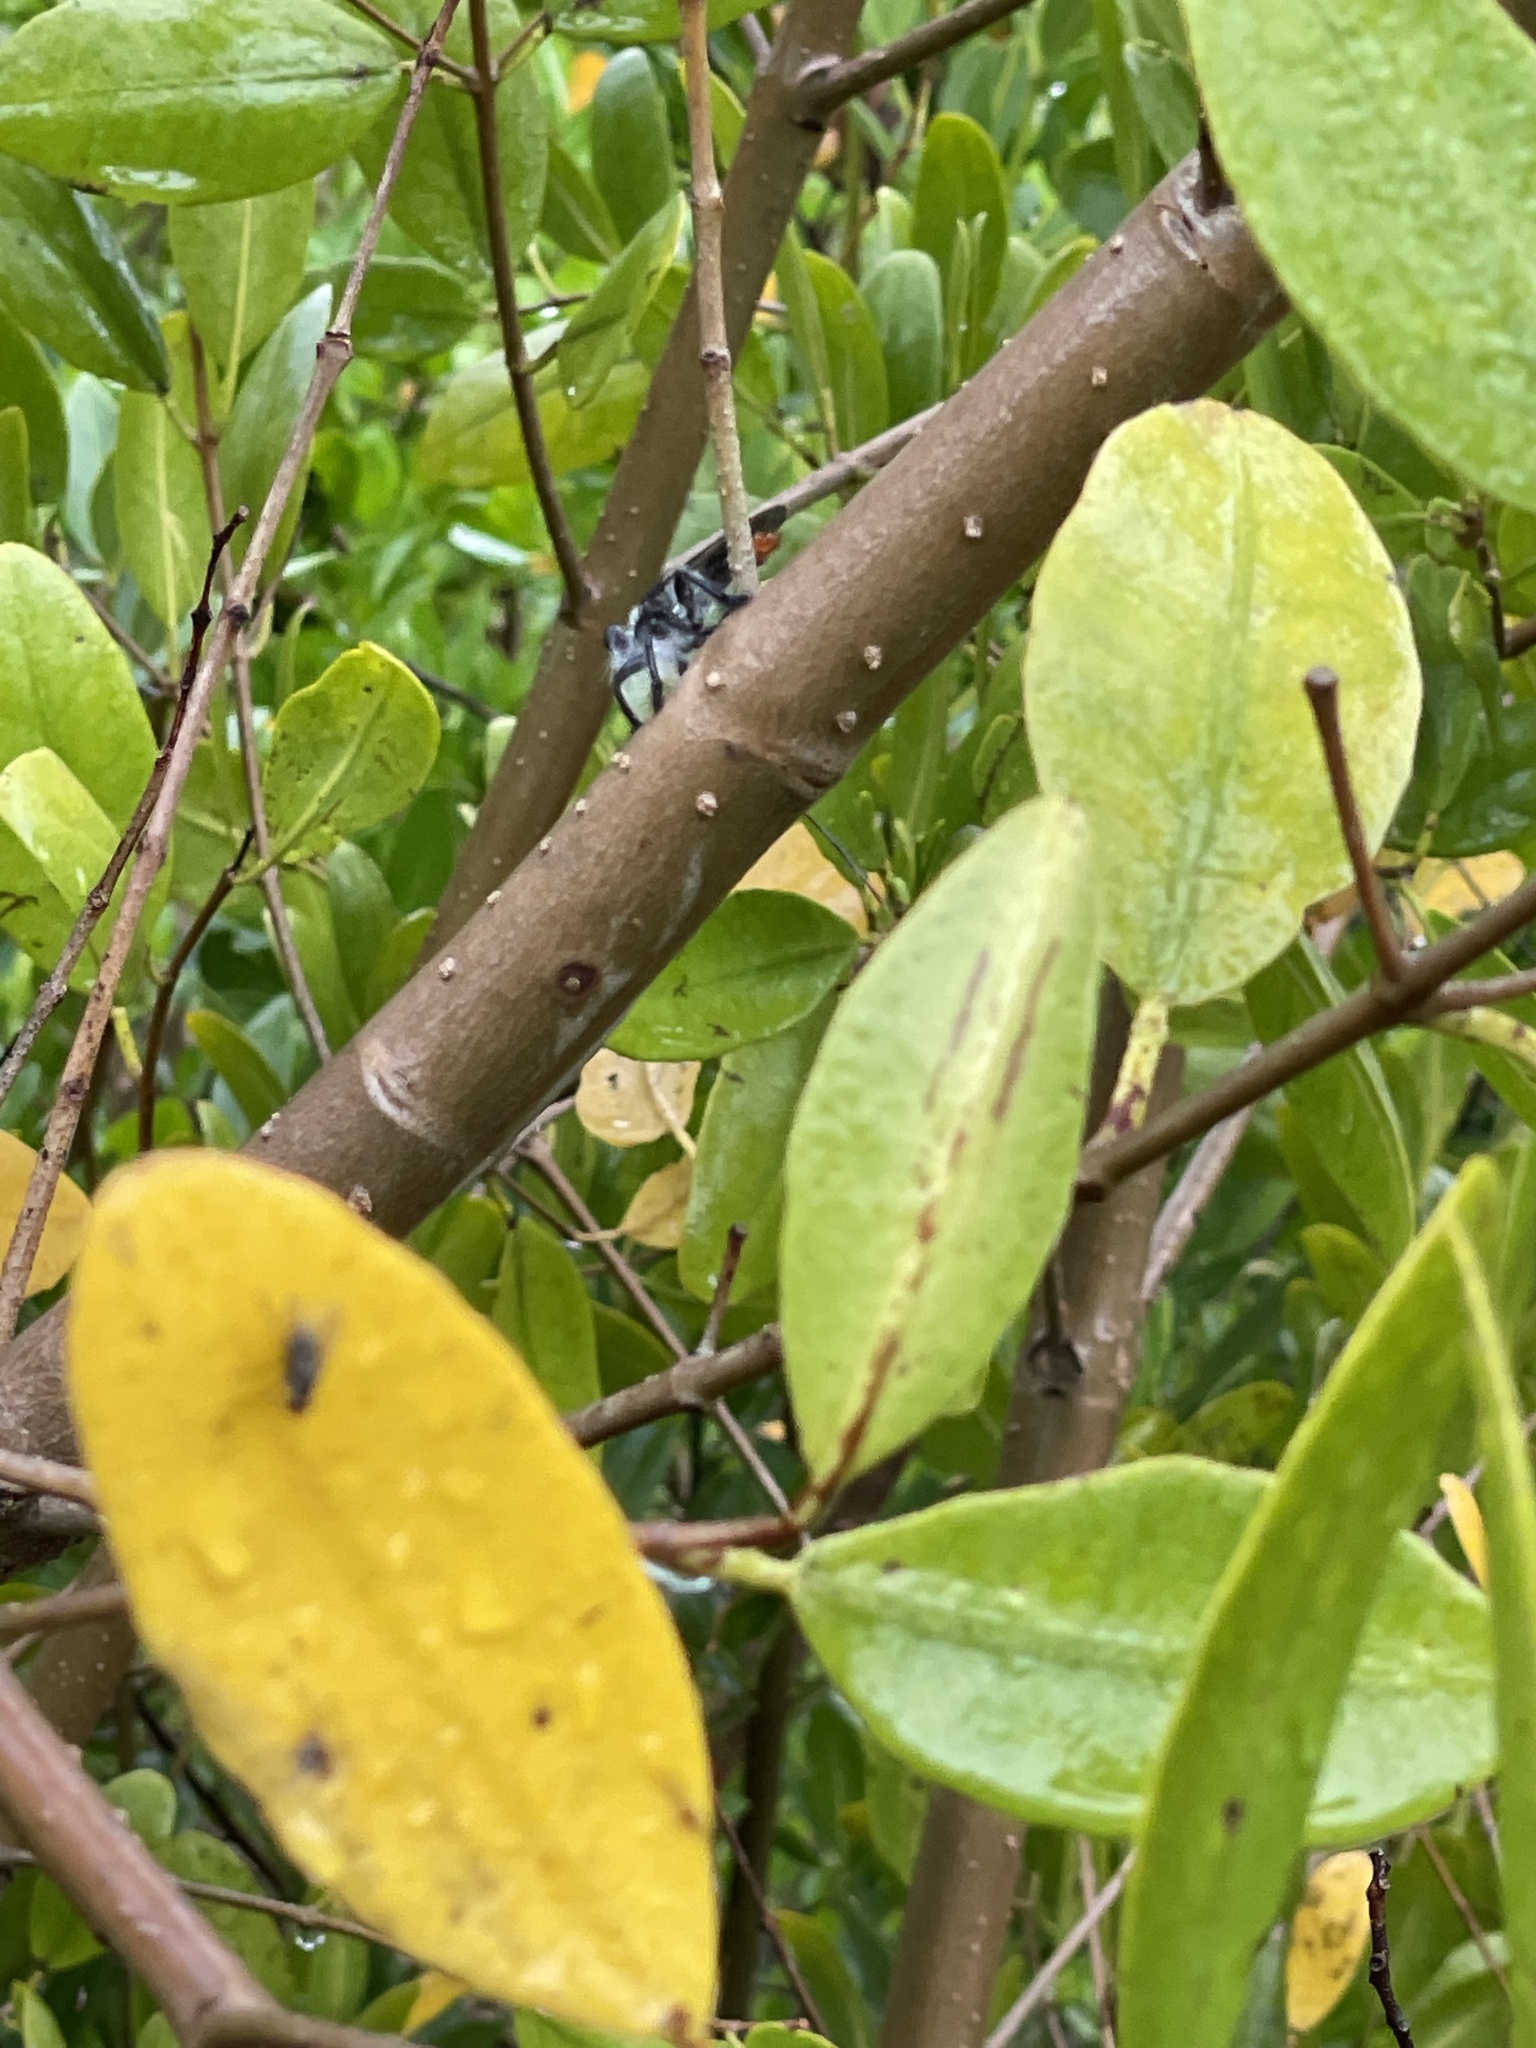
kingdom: Animalia
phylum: Arthropoda
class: Insecta
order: Diptera
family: Asilidae
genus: Andrenosoma
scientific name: Andrenosoma cruentum
